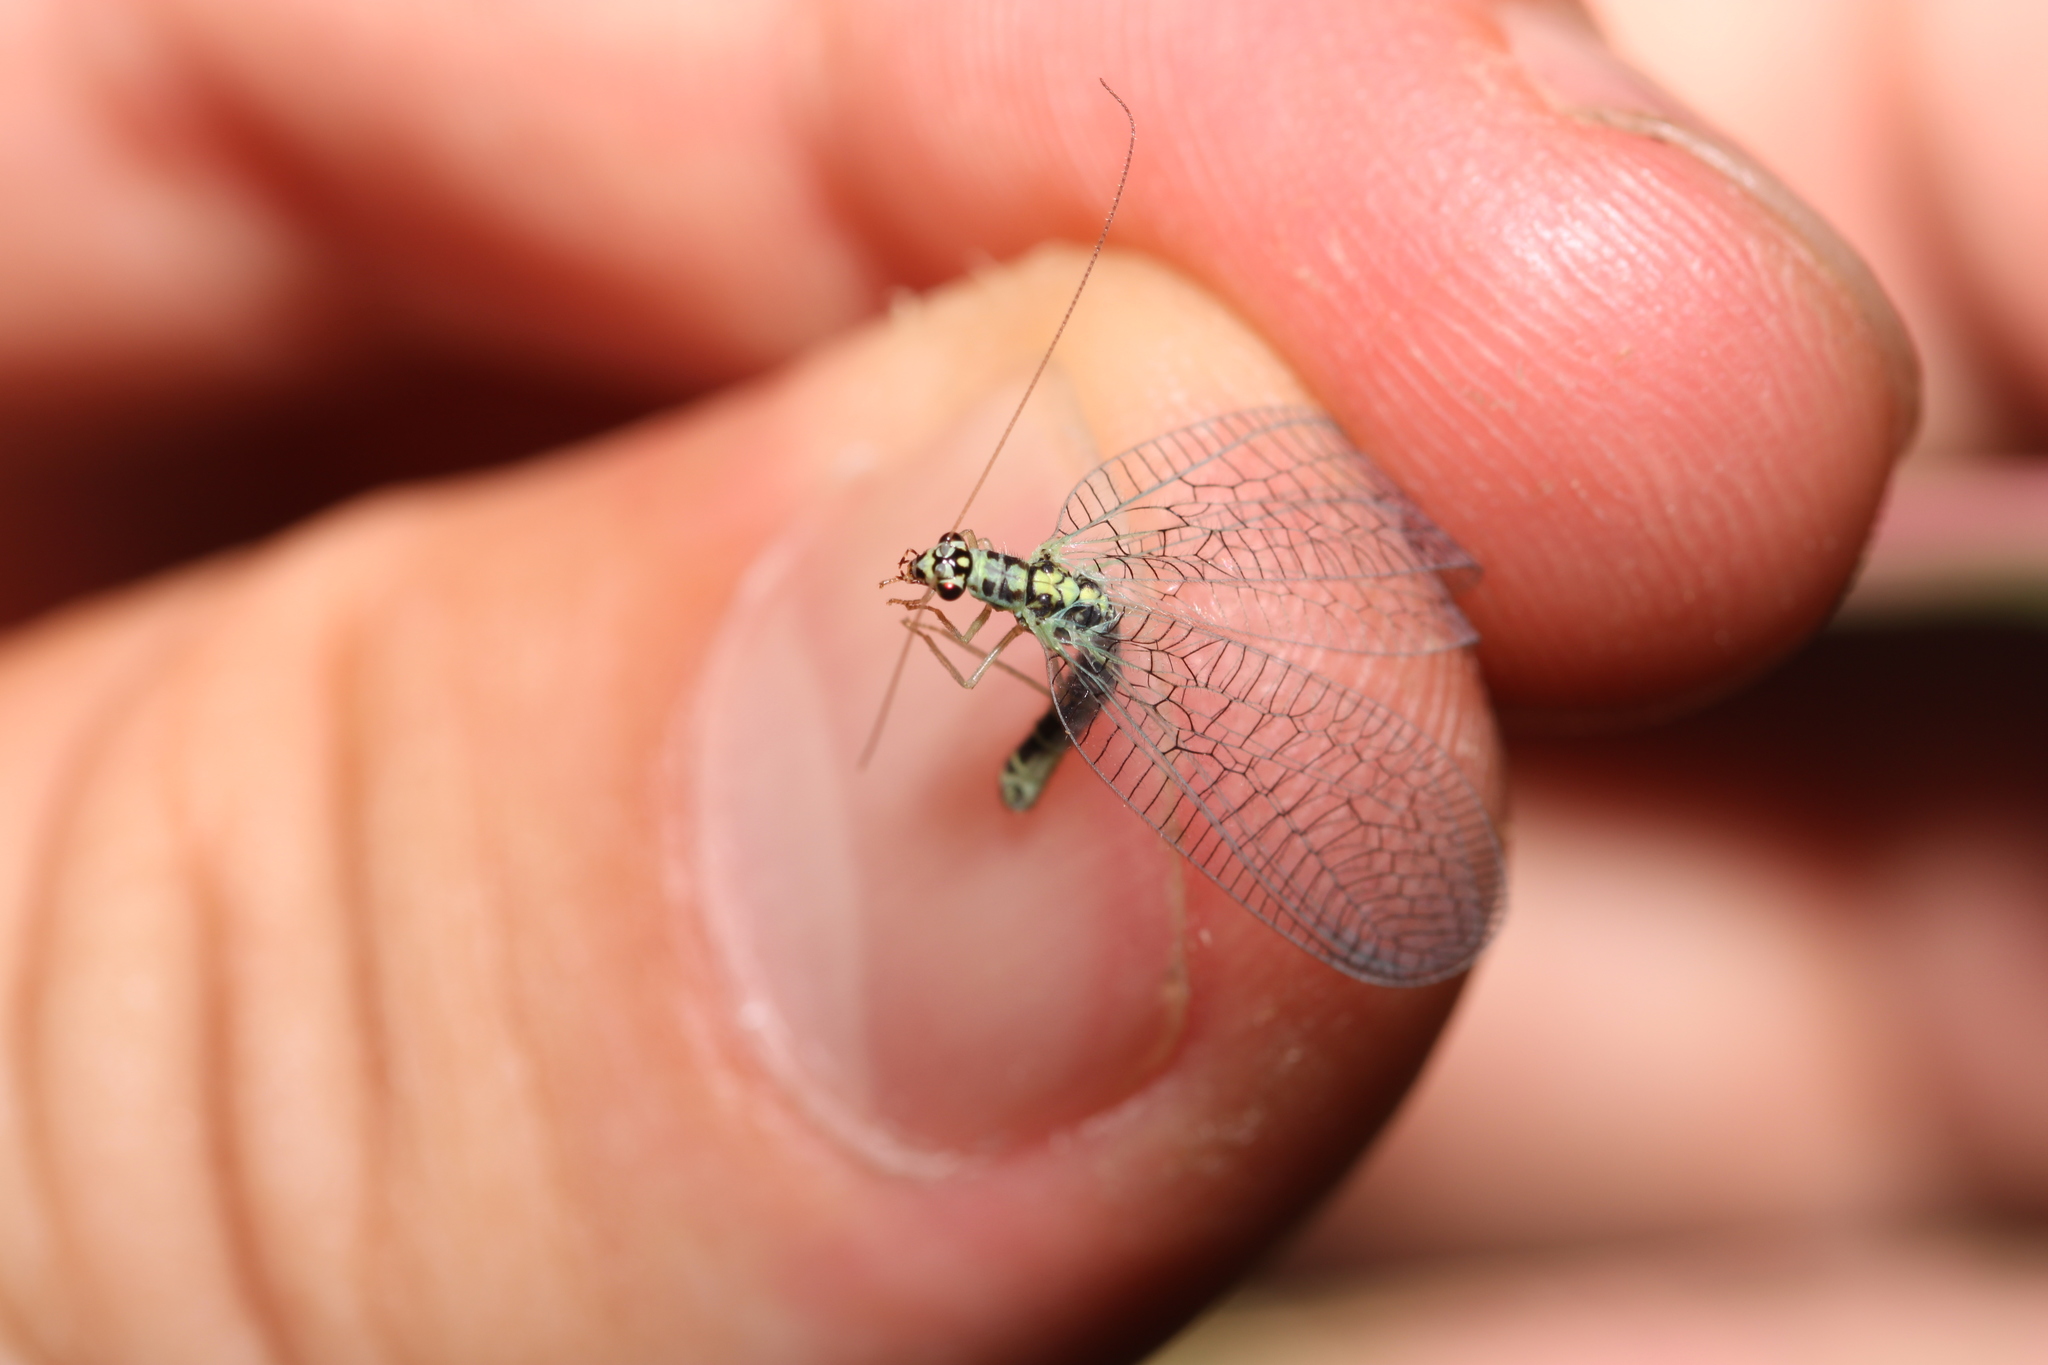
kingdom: Animalia
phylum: Arthropoda
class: Insecta
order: Neuroptera
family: Chrysopidae
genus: Chrysopa
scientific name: Chrysopa perla
